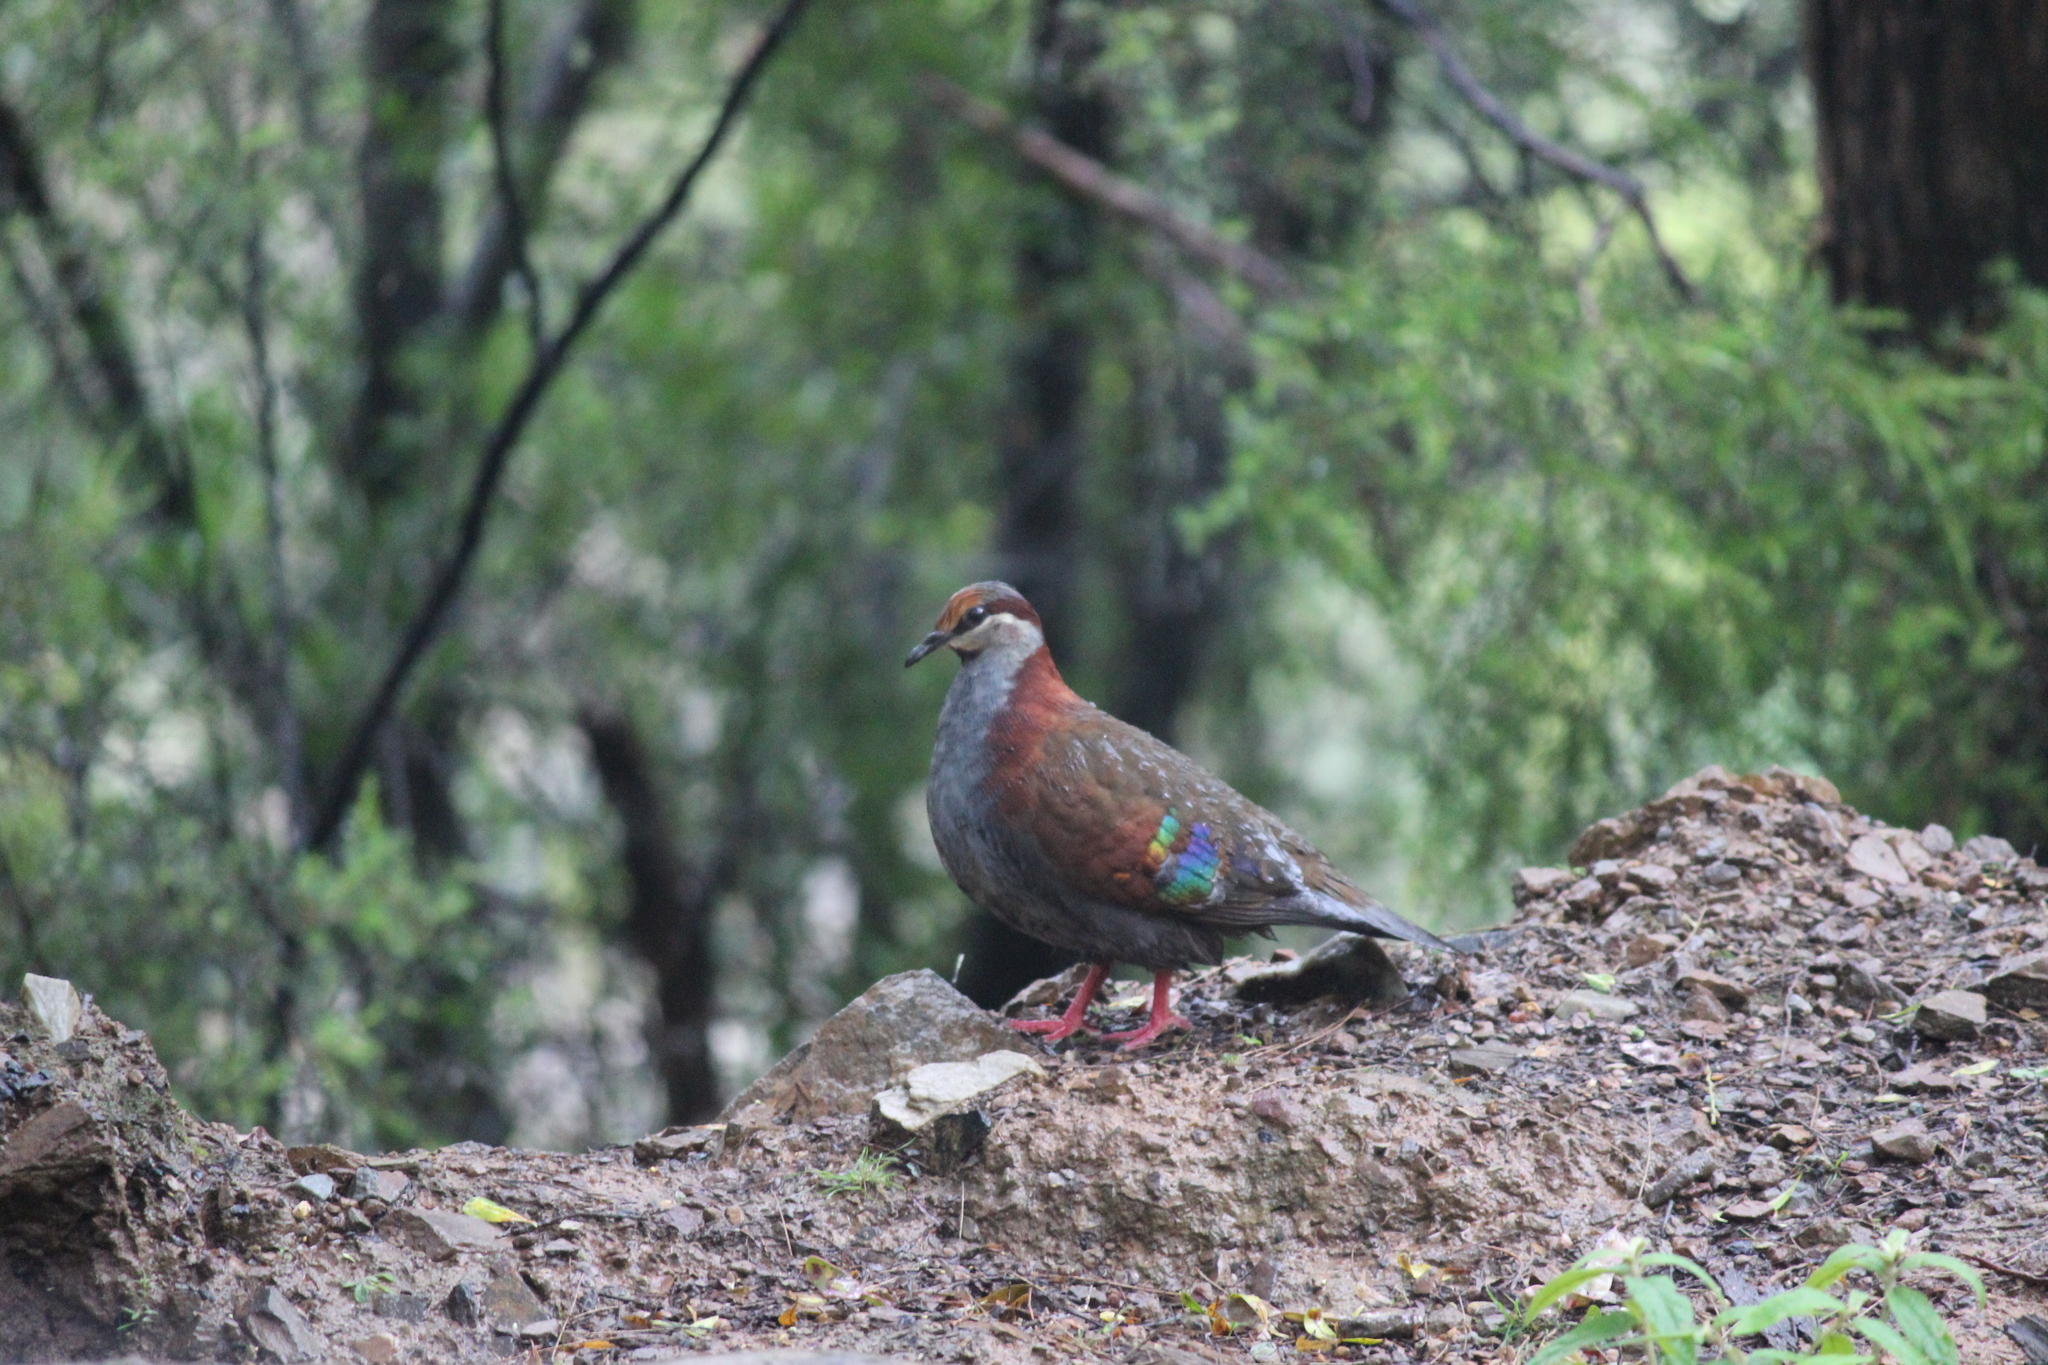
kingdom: Animalia
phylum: Chordata
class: Aves
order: Columbiformes
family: Columbidae
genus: Phaps
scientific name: Phaps elegans
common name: Brush bronzewing
